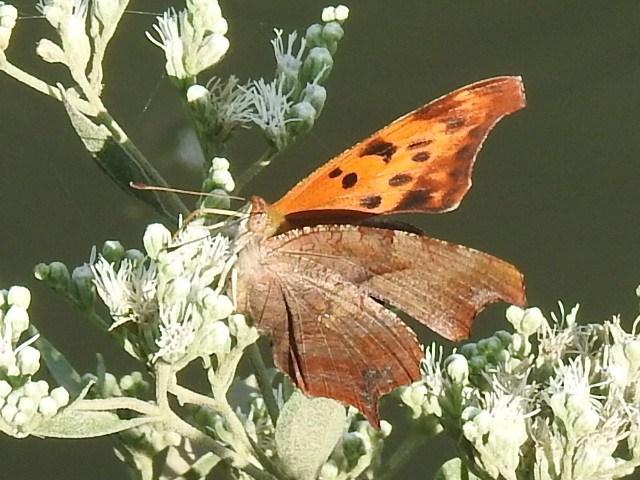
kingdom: Animalia
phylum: Arthropoda
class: Insecta
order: Lepidoptera
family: Nymphalidae
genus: Polygonia
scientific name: Polygonia interrogationis
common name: Question mark
